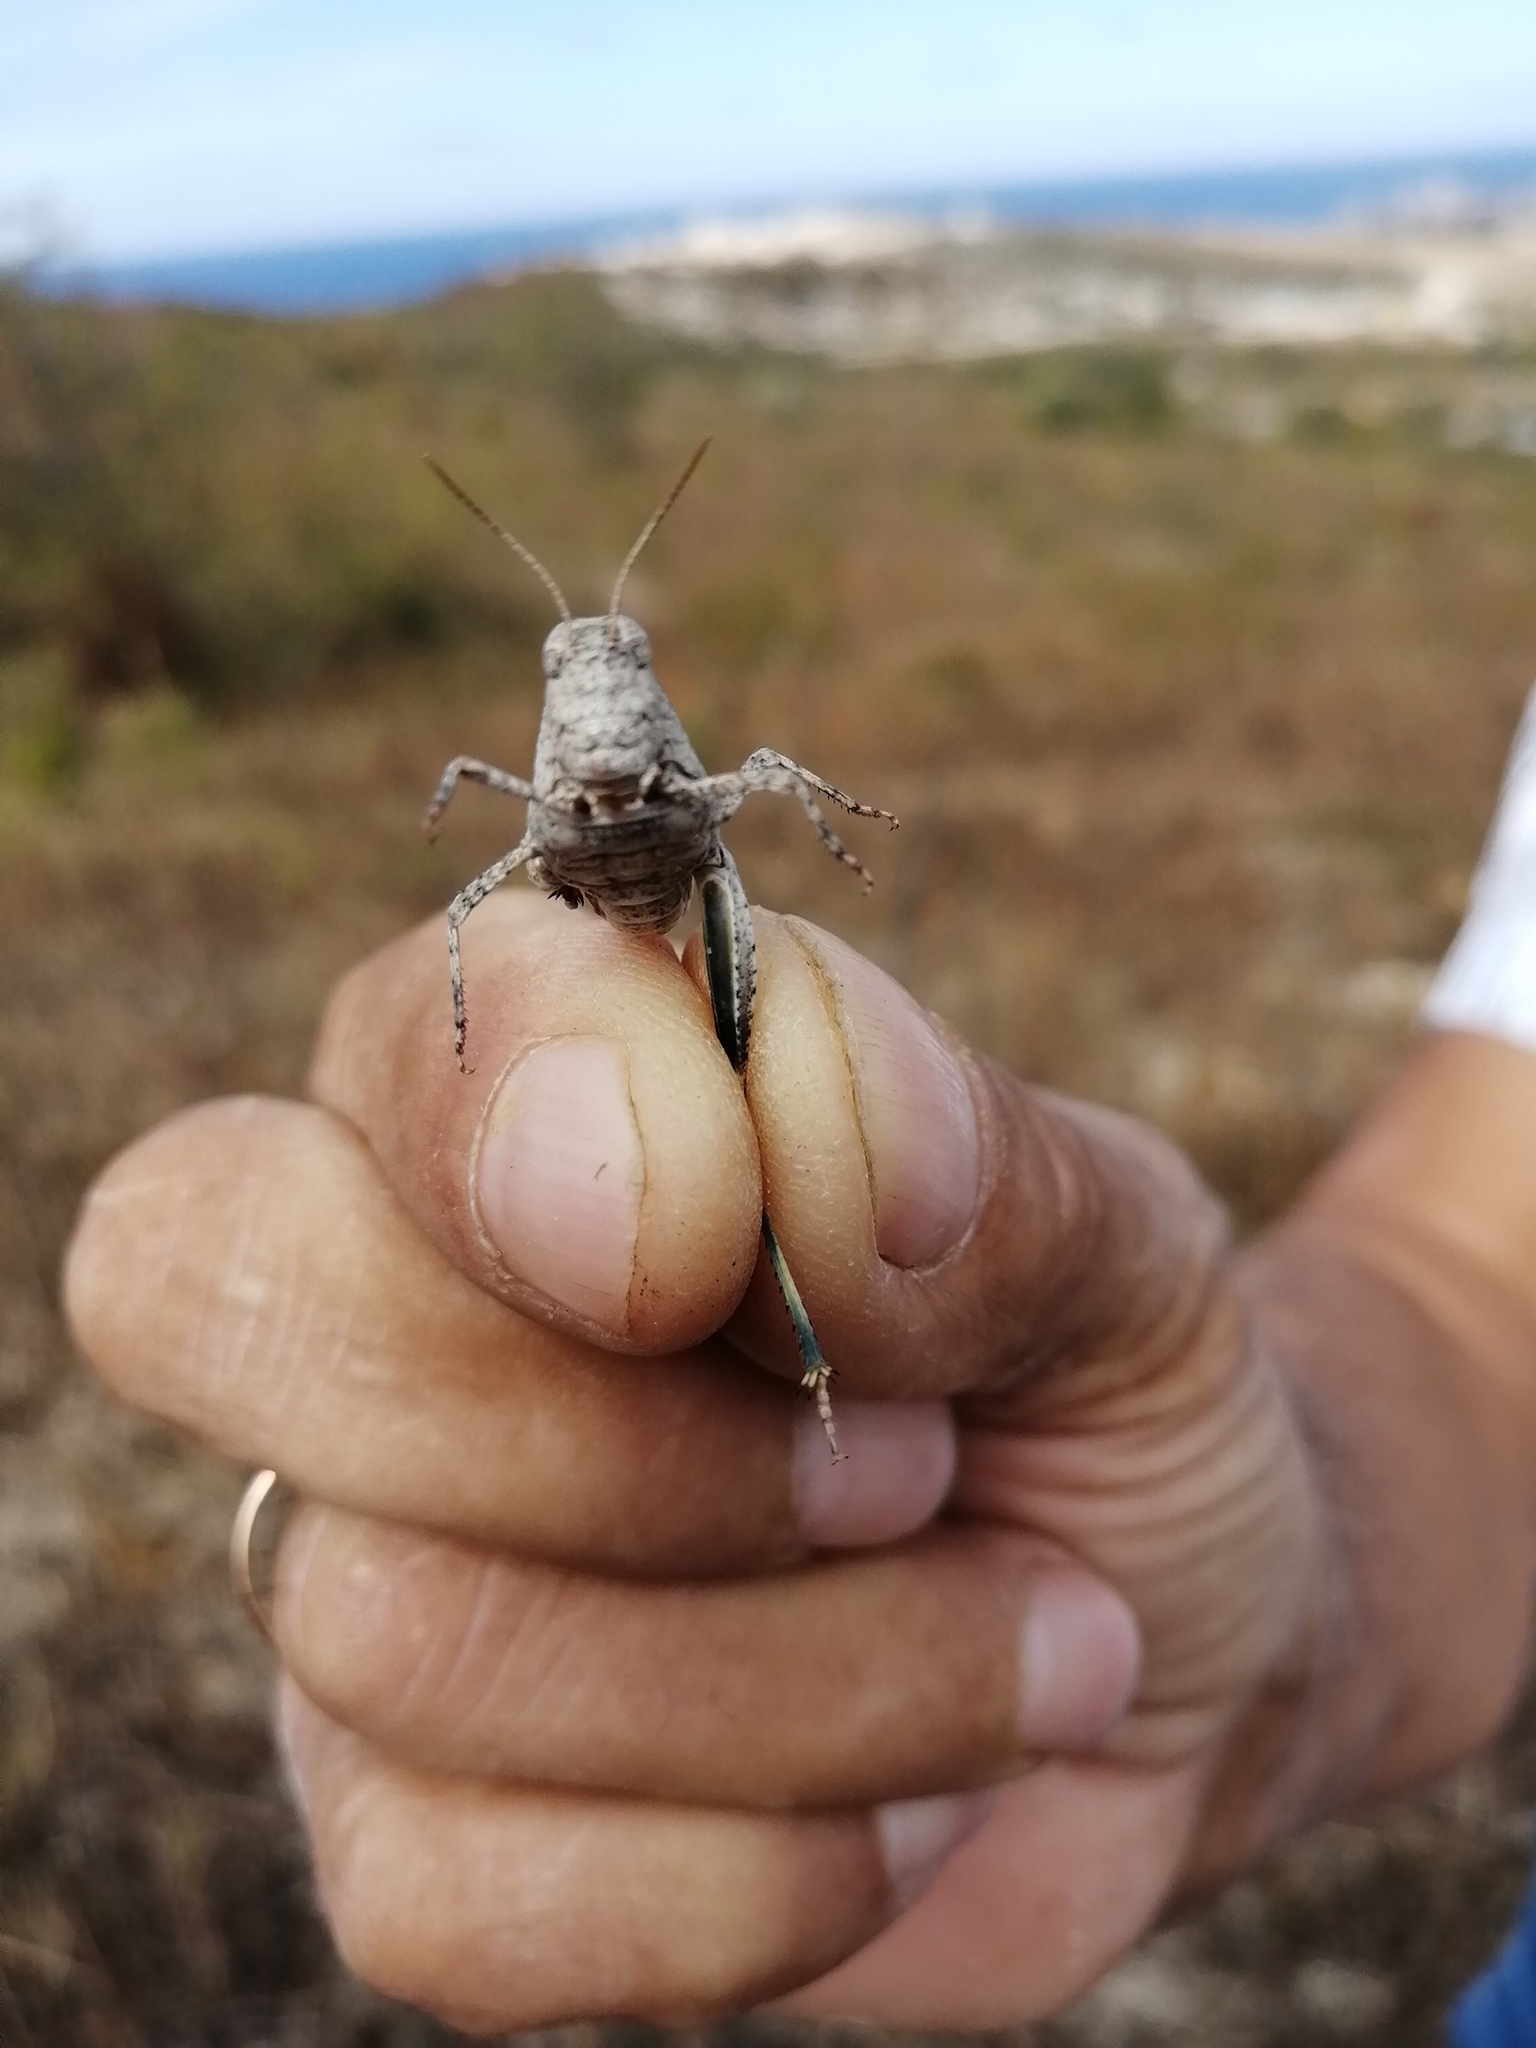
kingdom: Animalia
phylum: Arthropoda
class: Insecta
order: Orthoptera
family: Acrididae
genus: Oedipoda
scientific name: Oedipoda caerulescens
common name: Blue-winged grasshopper
